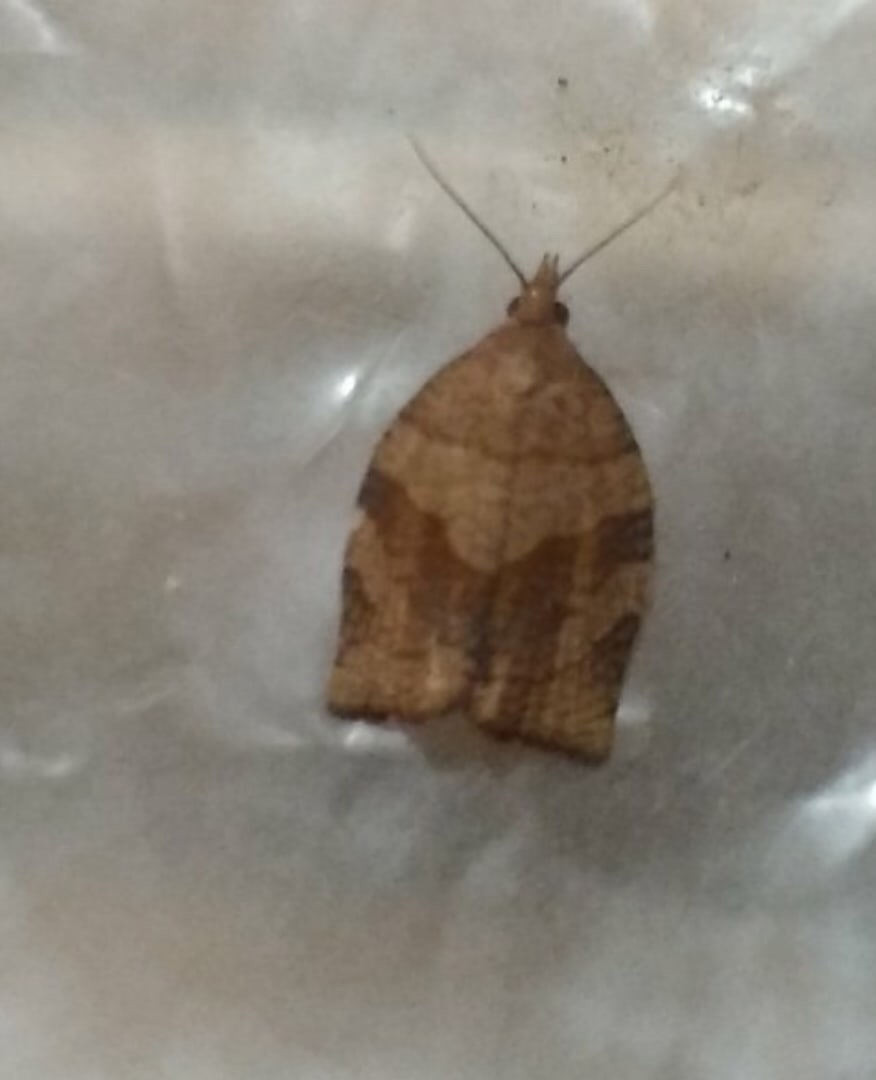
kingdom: Animalia
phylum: Arthropoda
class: Insecta
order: Lepidoptera
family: Tortricidae
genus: Pandemis
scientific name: Pandemis dumetana
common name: Thicket twist
